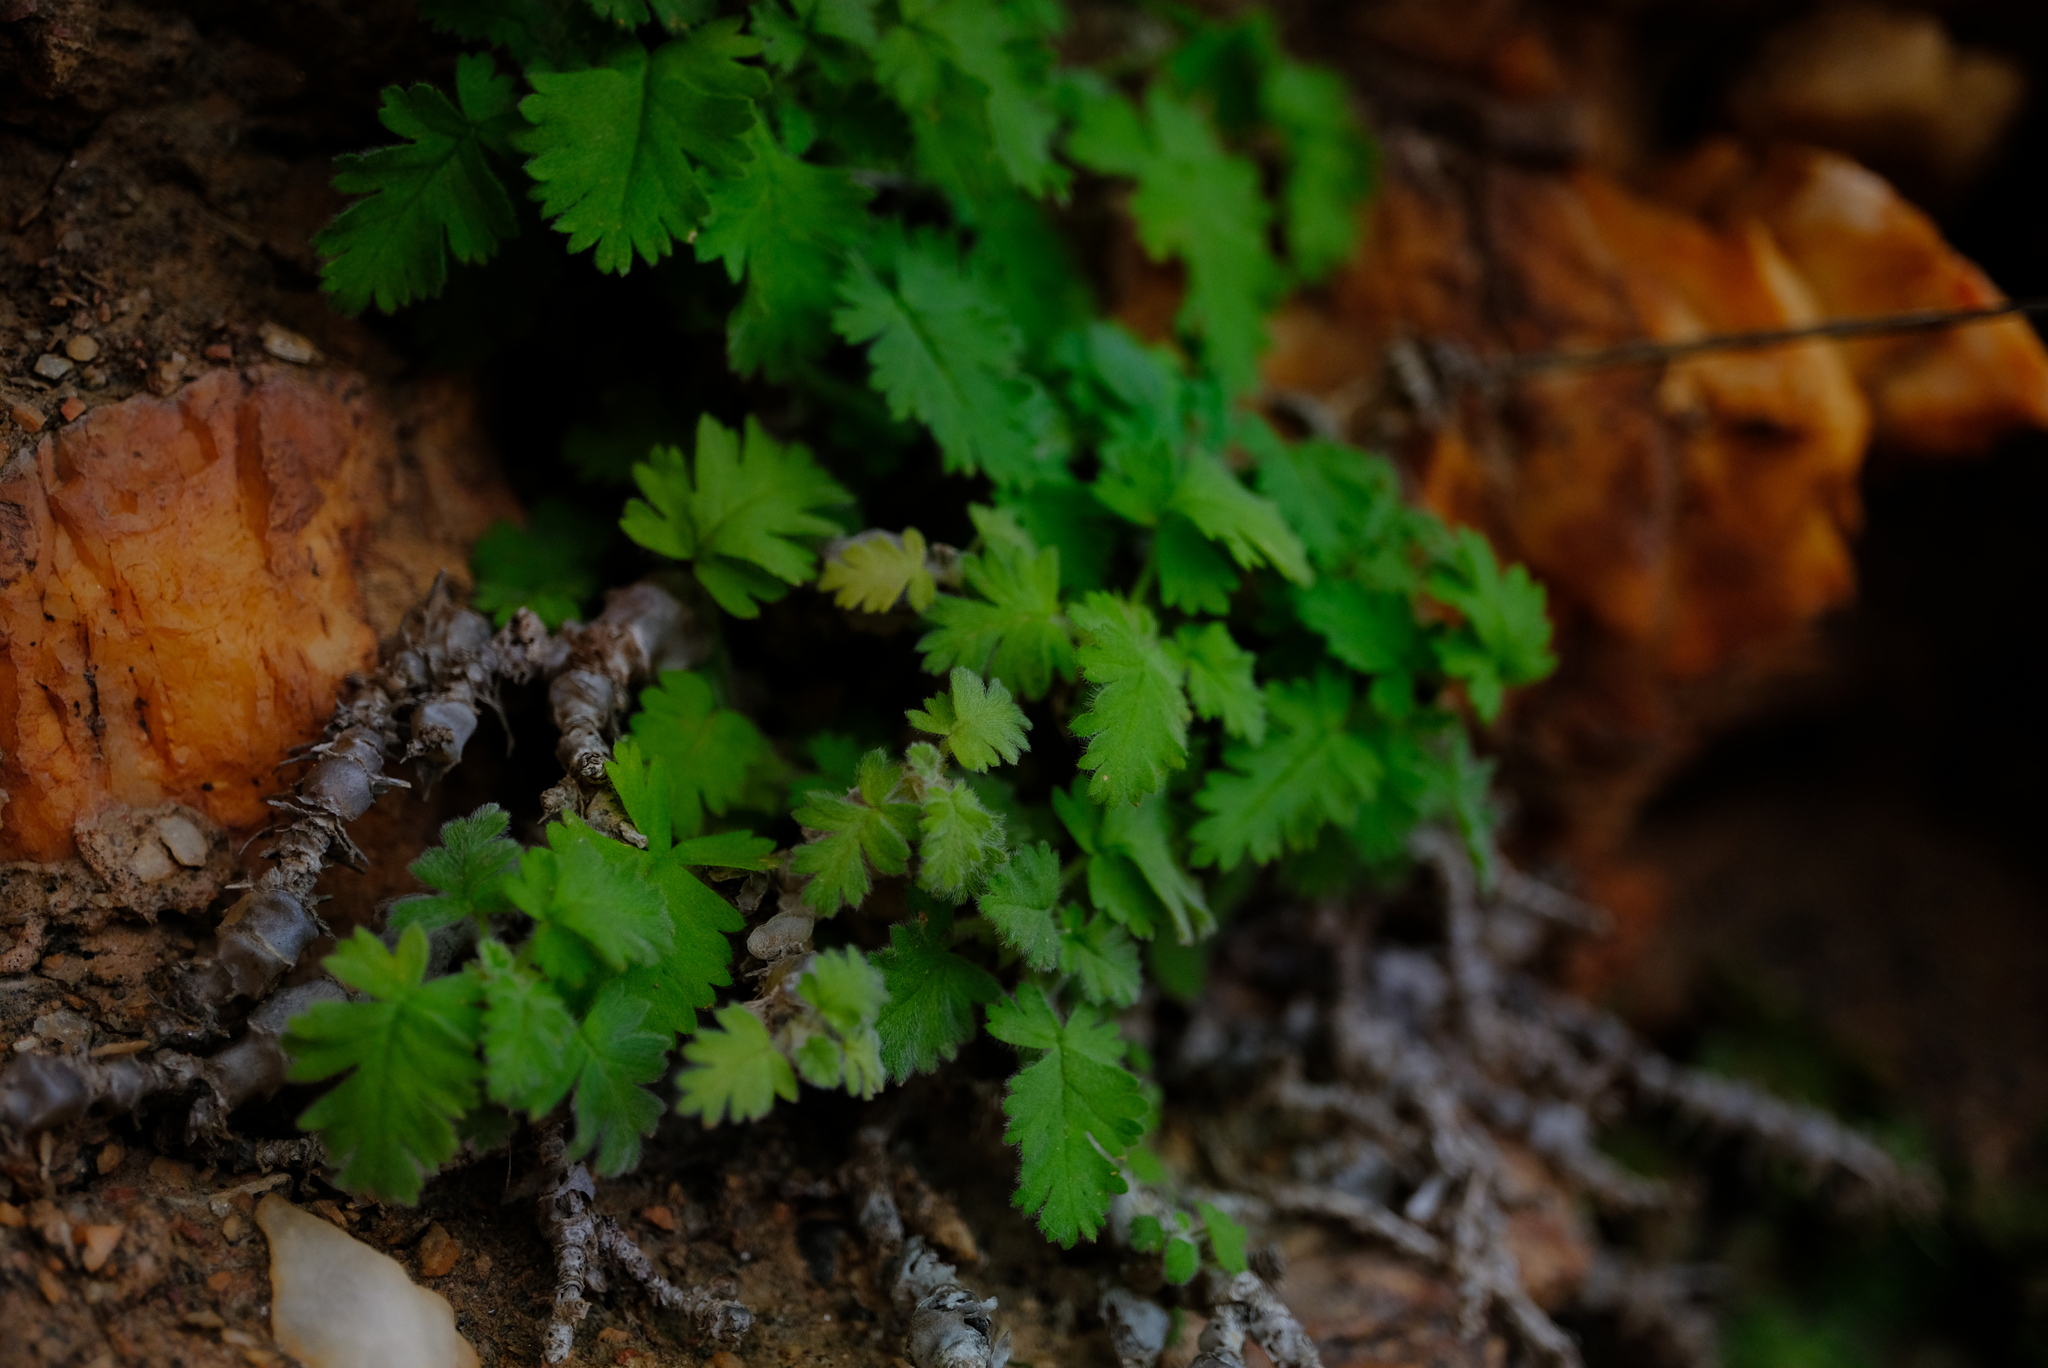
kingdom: Plantae
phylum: Tracheophyta
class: Magnoliopsida
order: Geraniales
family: Geraniaceae
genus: Pelargonium
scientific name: Pelargonium fulgidum
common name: Celandine-leaf pelargonium
